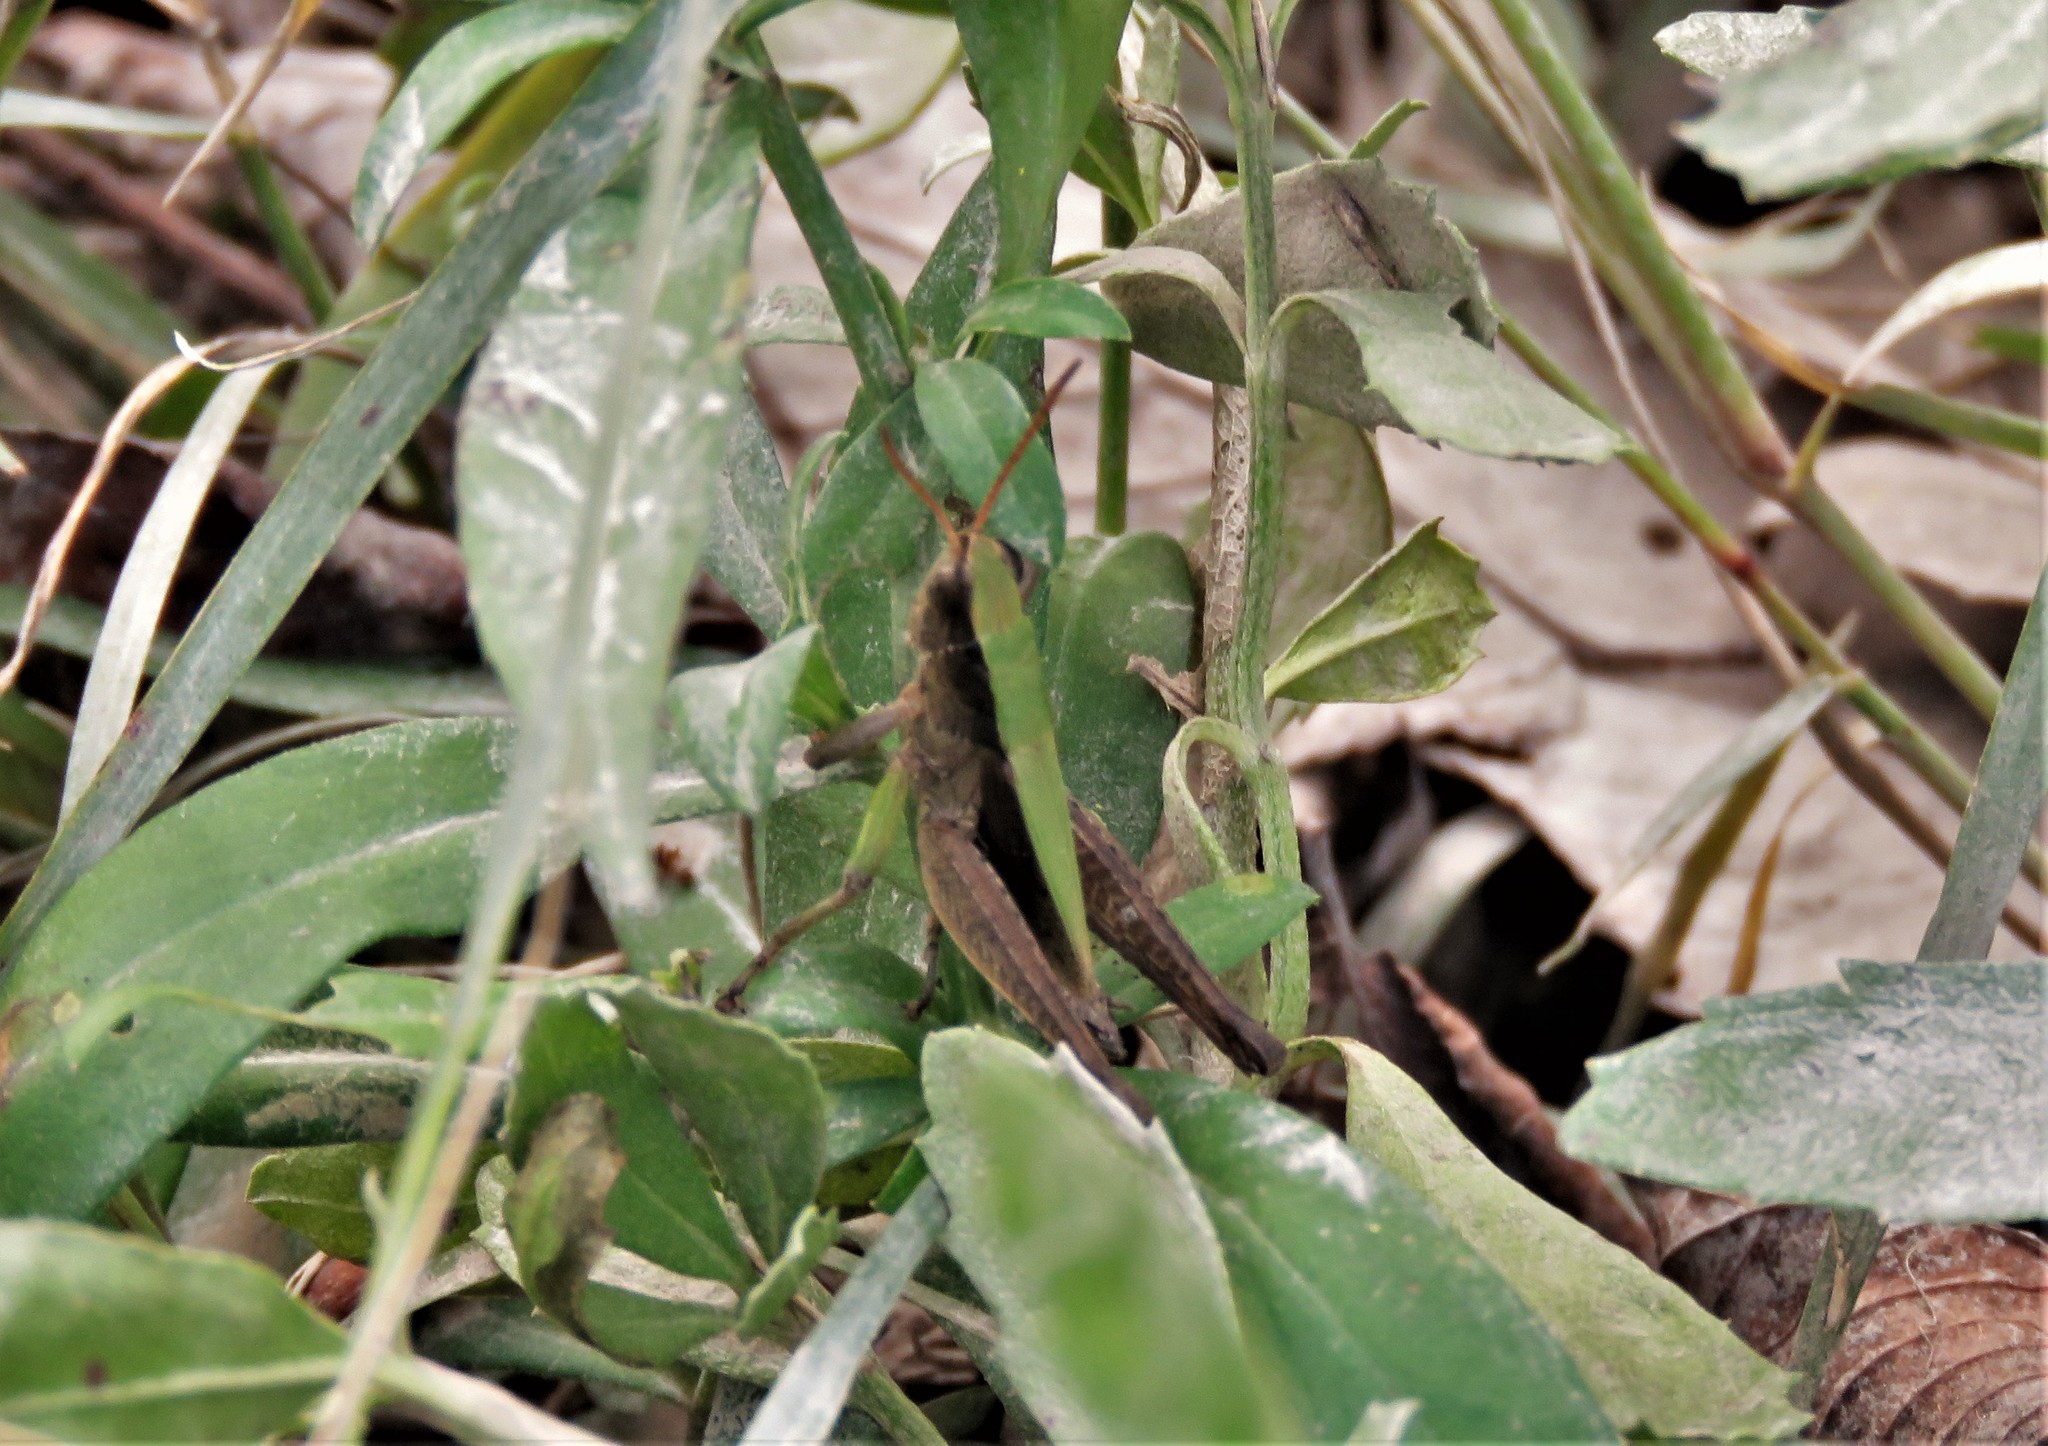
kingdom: Animalia
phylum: Arthropoda
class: Insecta
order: Orthoptera
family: Acrididae
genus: Dichromorpha
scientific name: Dichromorpha viridis
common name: Short-winged green grasshopper
